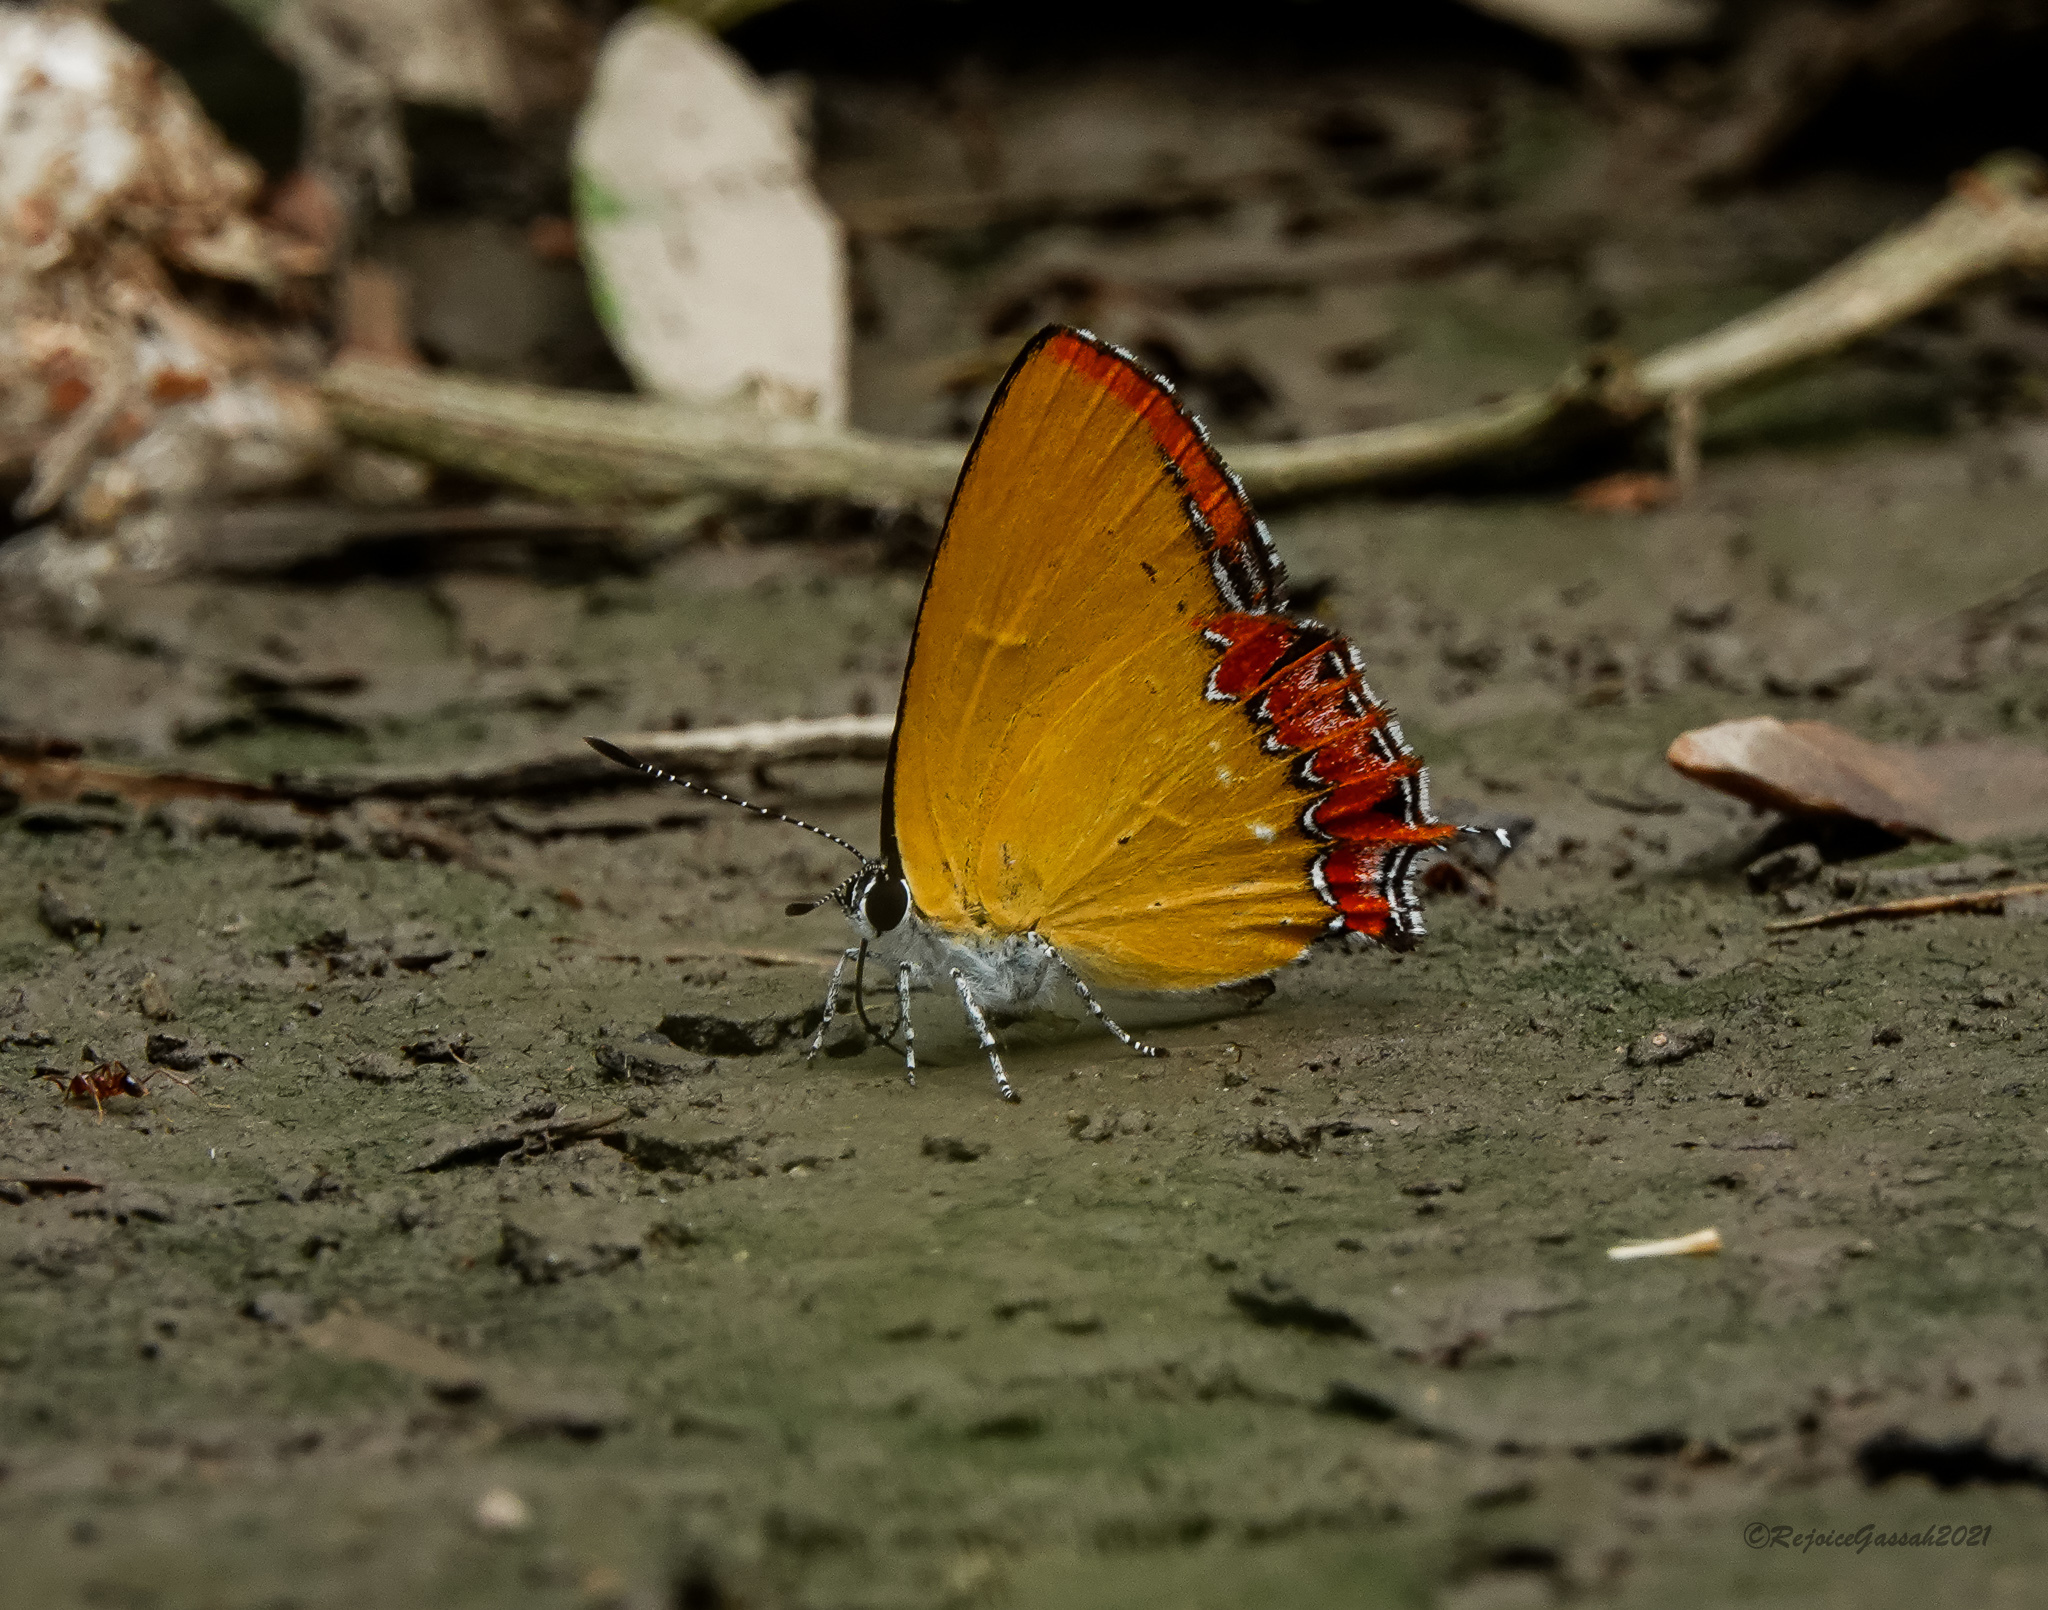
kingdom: Animalia
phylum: Arthropoda
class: Insecta
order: Lepidoptera
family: Lycaenidae
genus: Heliophorus
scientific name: Heliophorus epicles
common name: Purple sapphire
